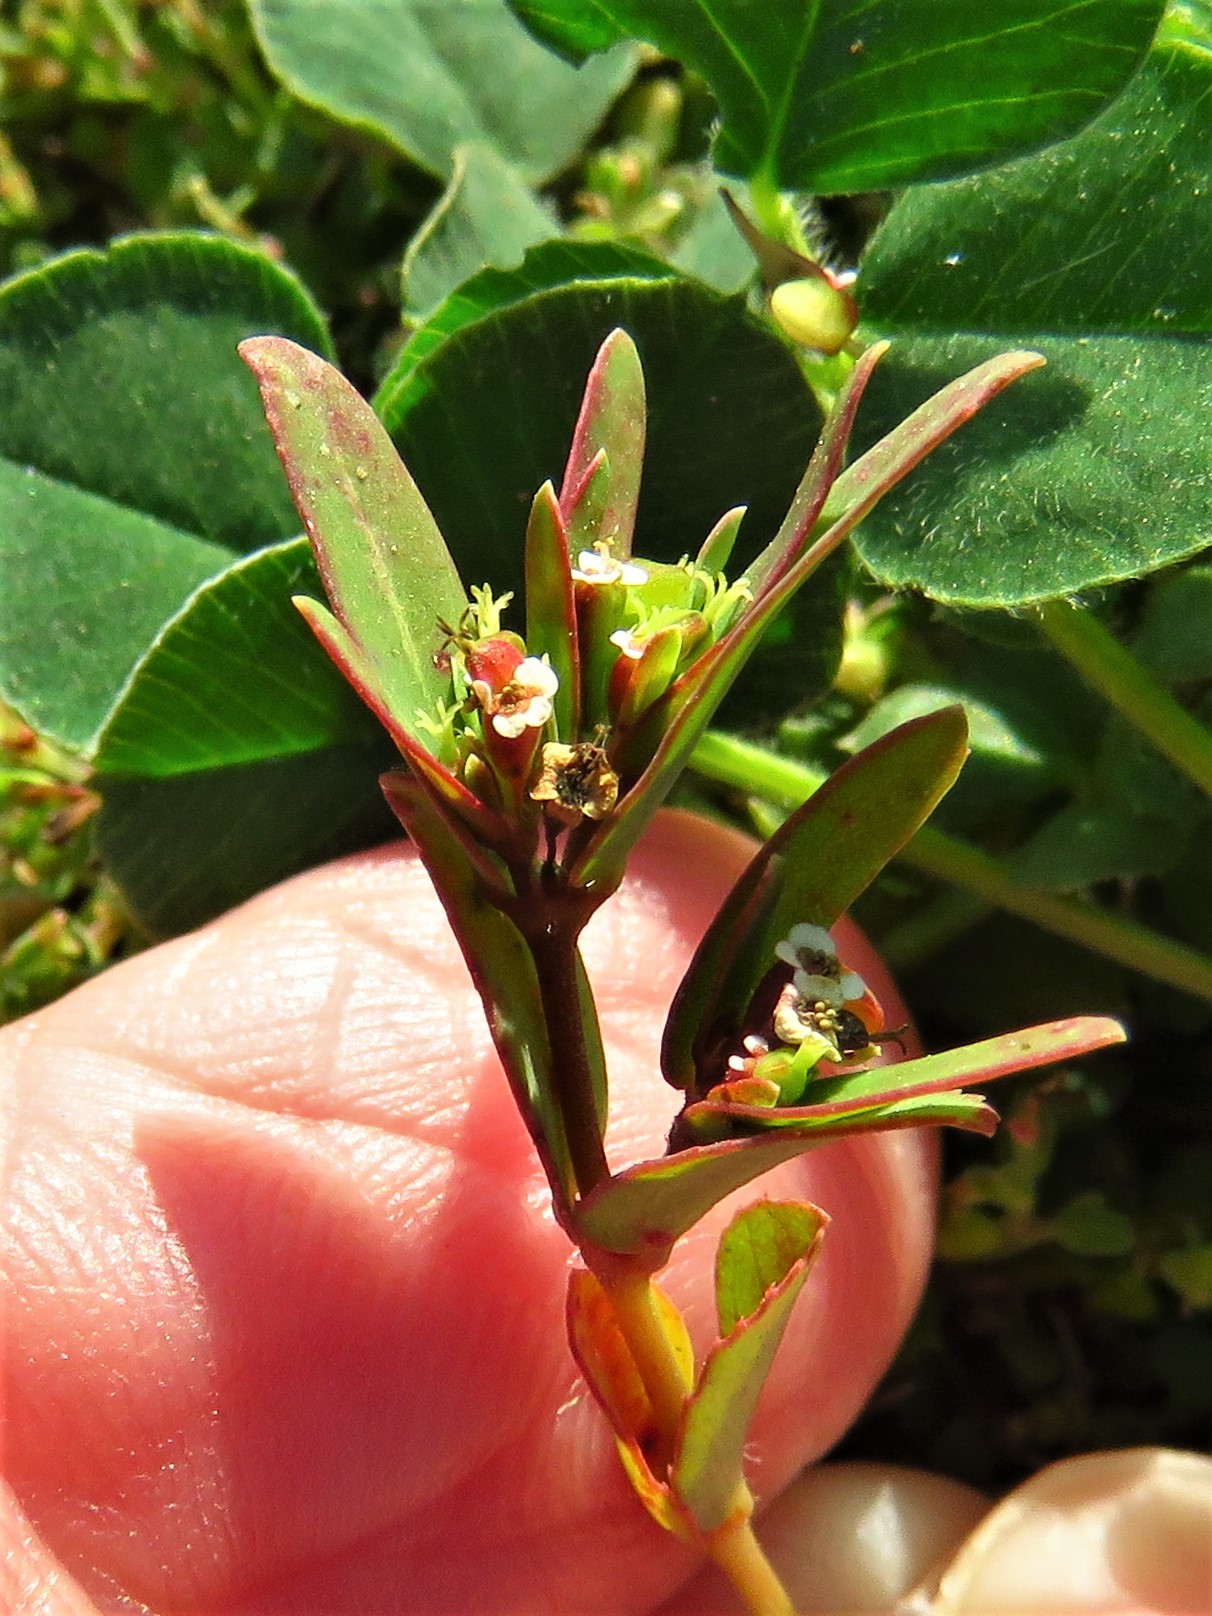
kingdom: Plantae
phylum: Tracheophyta
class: Magnoliopsida
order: Malpighiales
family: Euphorbiaceae
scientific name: Euphorbiaceae
